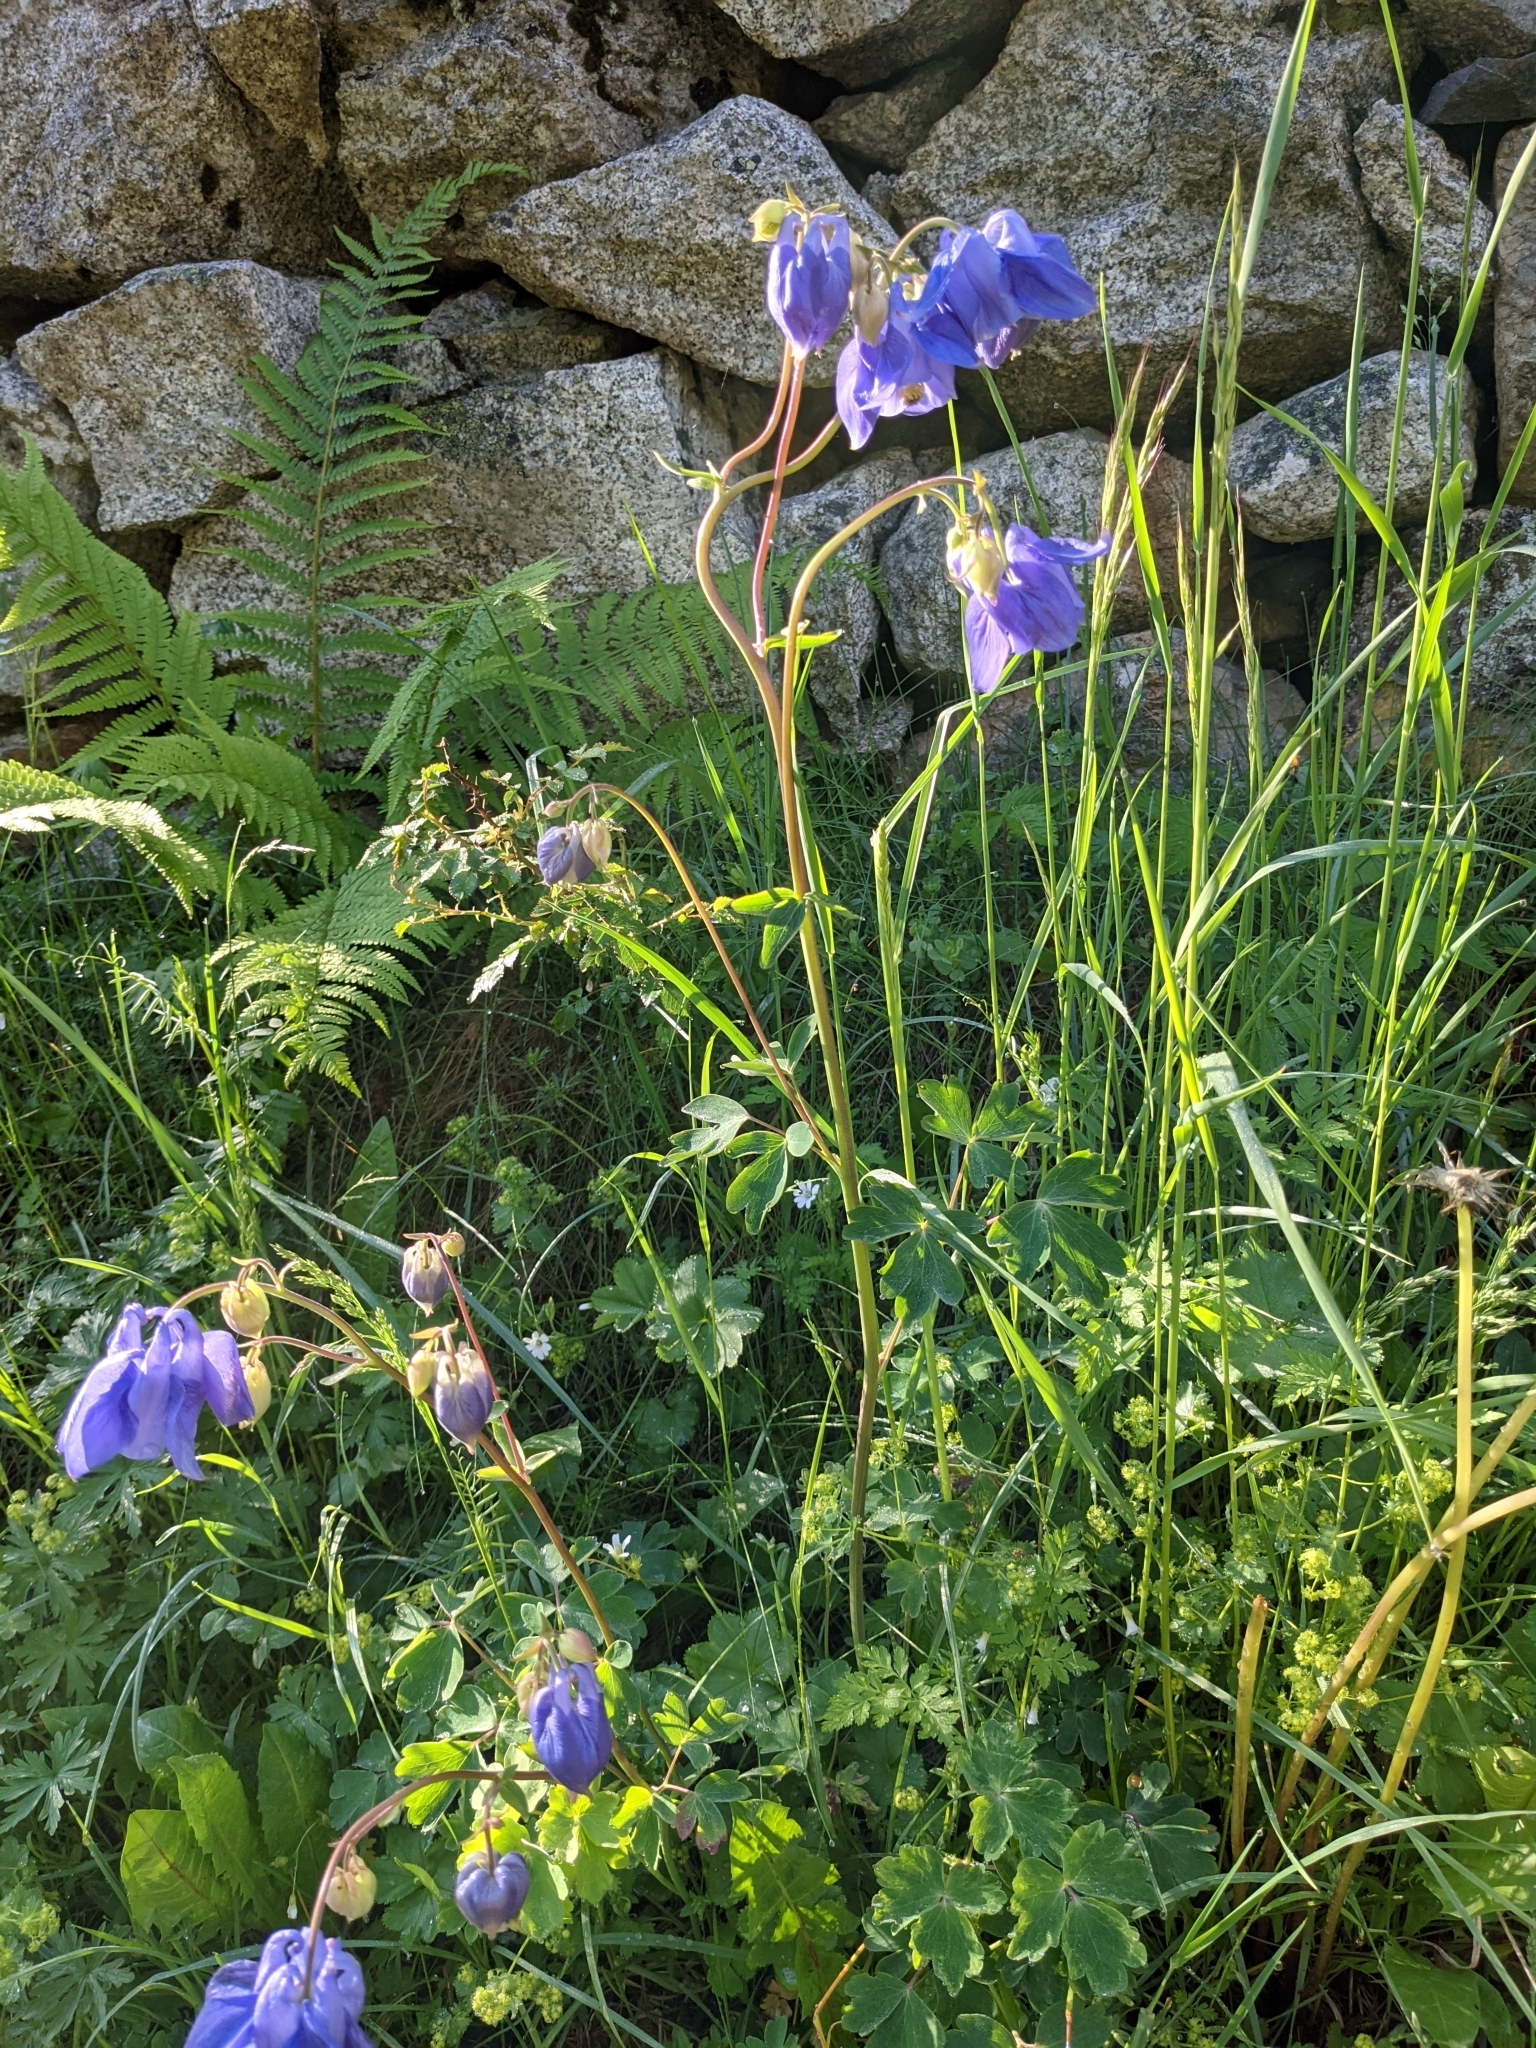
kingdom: Plantae
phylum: Tracheophyta
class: Magnoliopsida
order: Ranunculales
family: Ranunculaceae
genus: Aquilegia
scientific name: Aquilegia vulgaris
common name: Columbine
